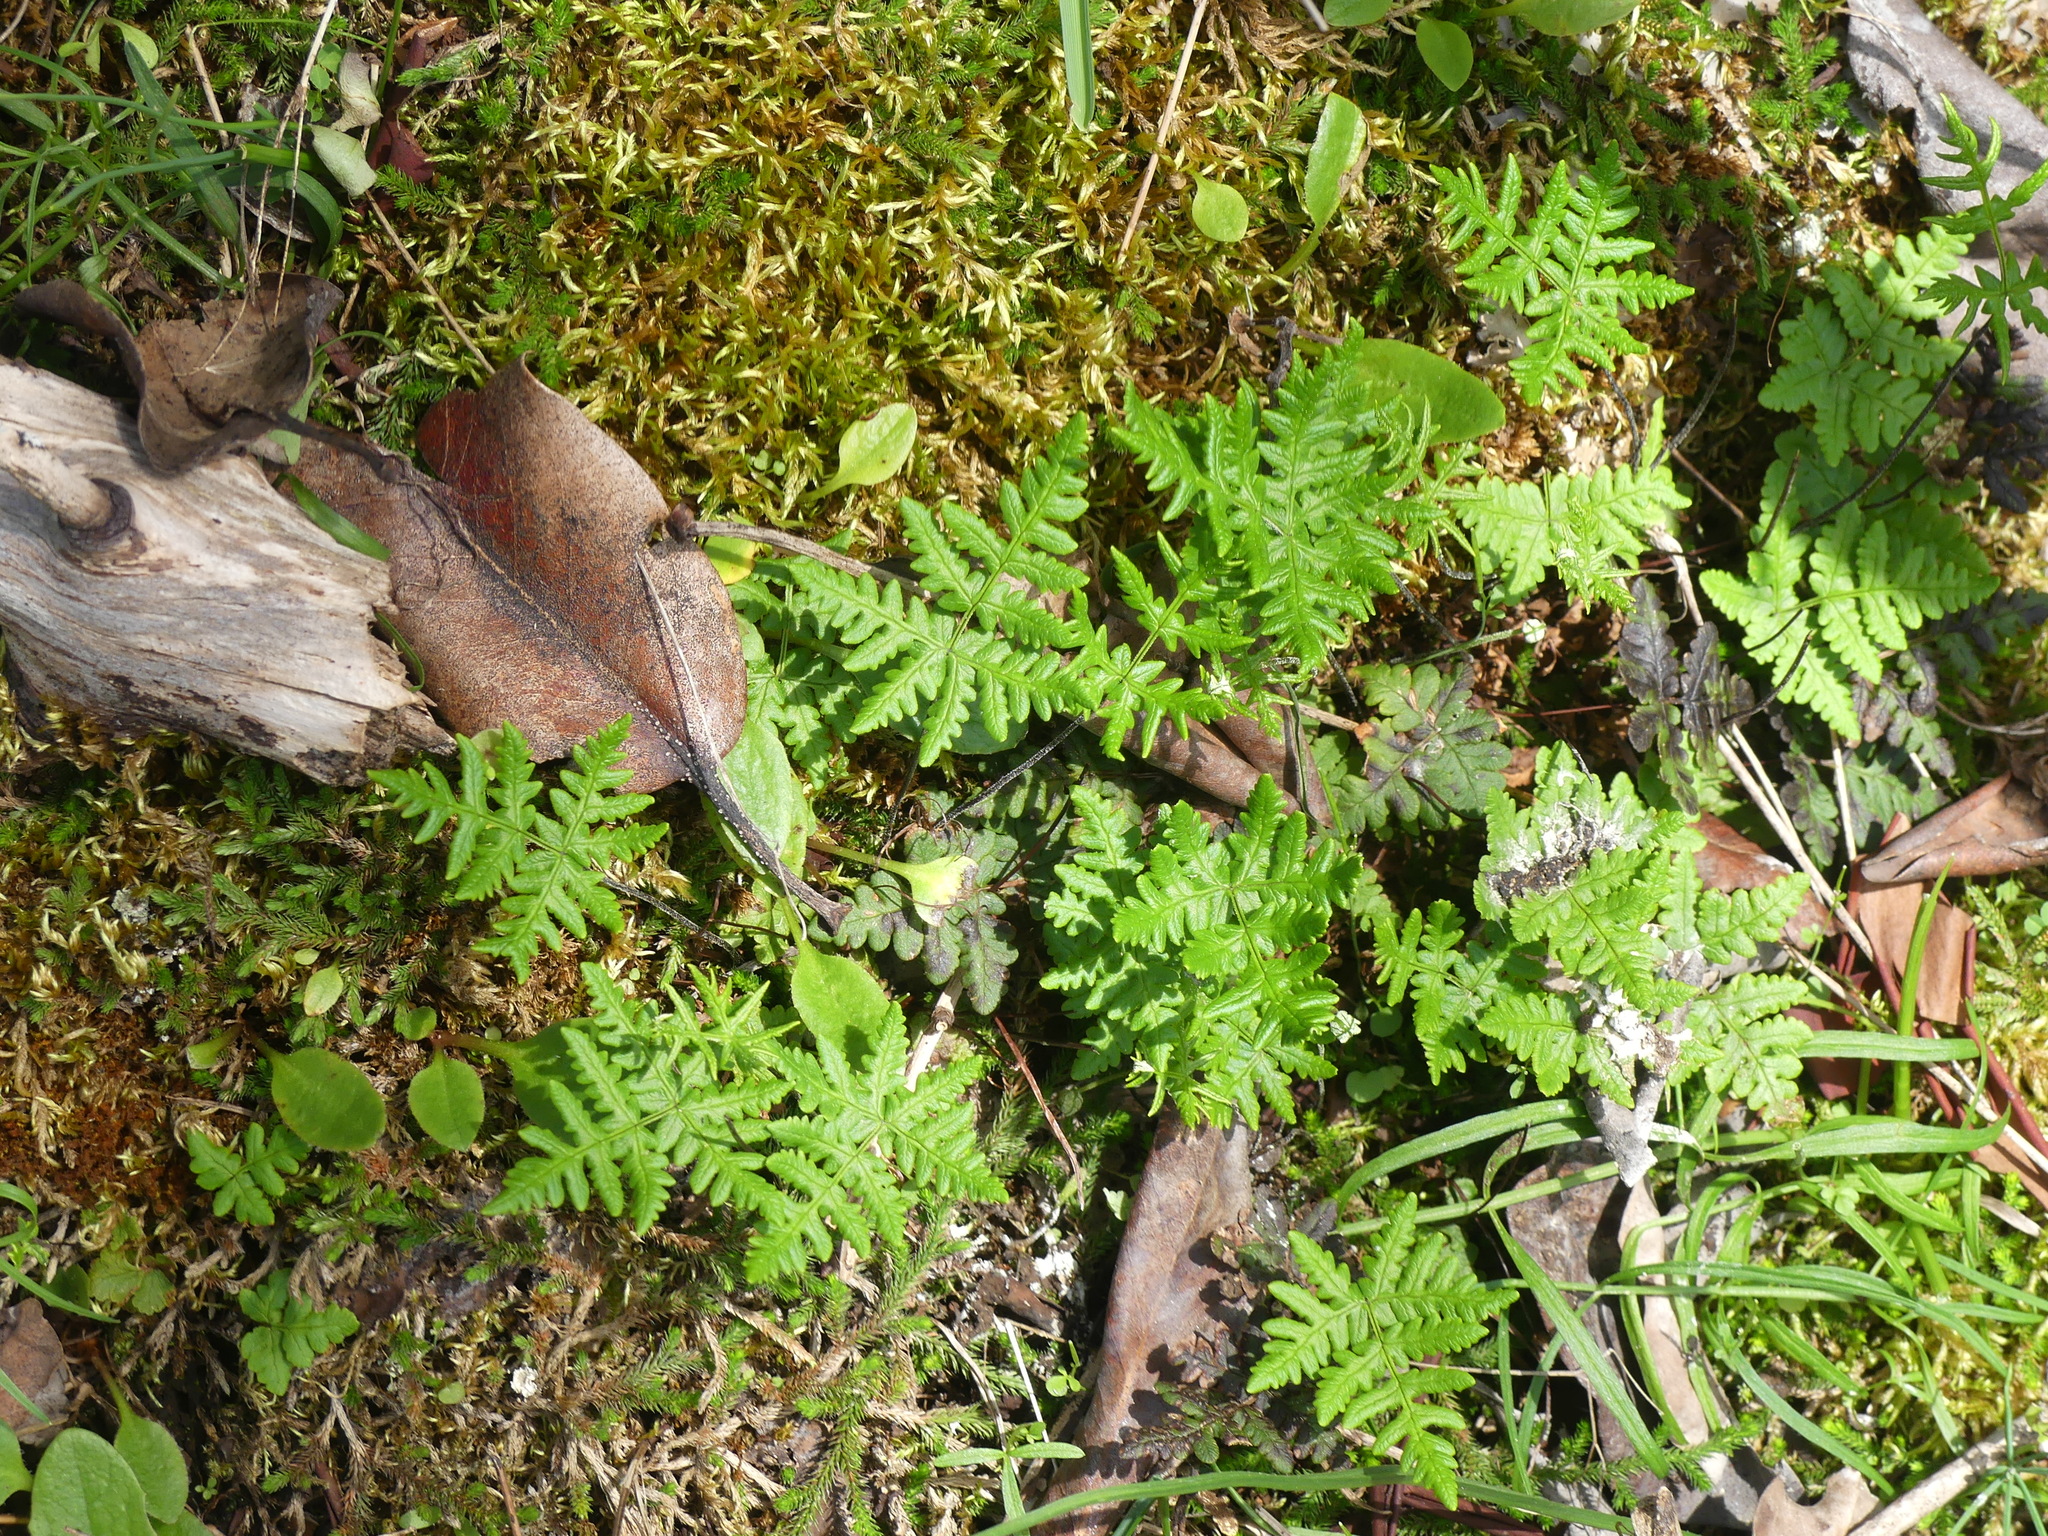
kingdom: Plantae
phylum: Tracheophyta
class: Polypodiopsida
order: Polypodiales
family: Pteridaceae
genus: Pentagramma
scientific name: Pentagramma triangularis
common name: Gold fern
